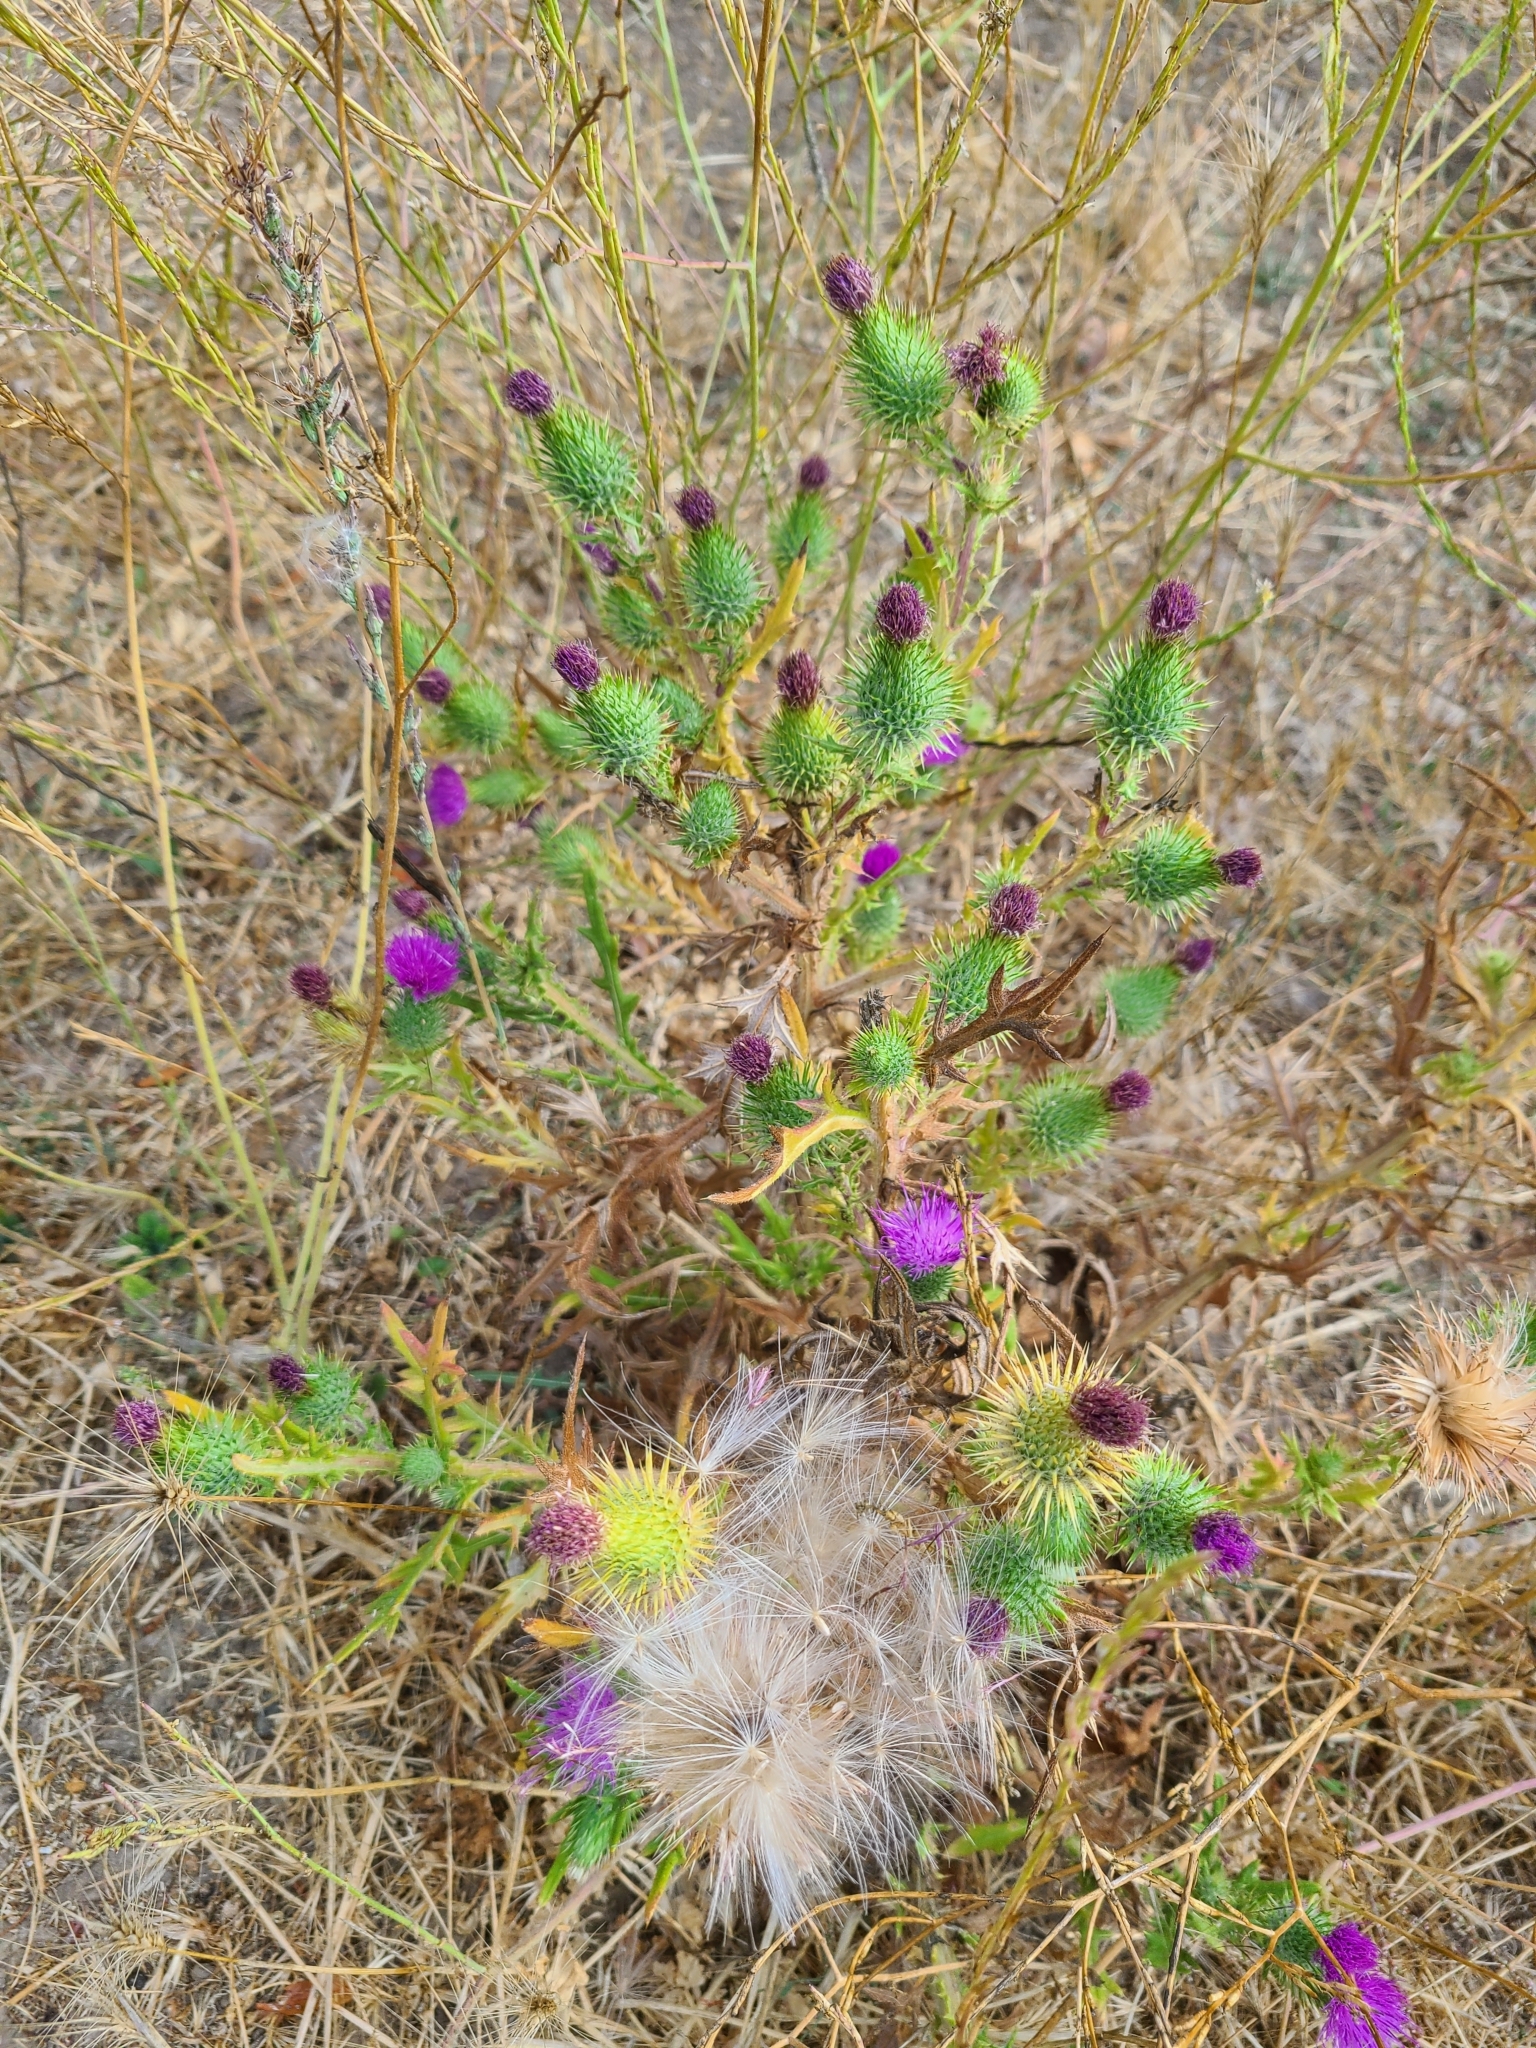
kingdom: Plantae
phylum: Tracheophyta
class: Magnoliopsida
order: Asterales
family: Asteraceae
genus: Cirsium
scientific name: Cirsium vulgare
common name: Bull thistle
